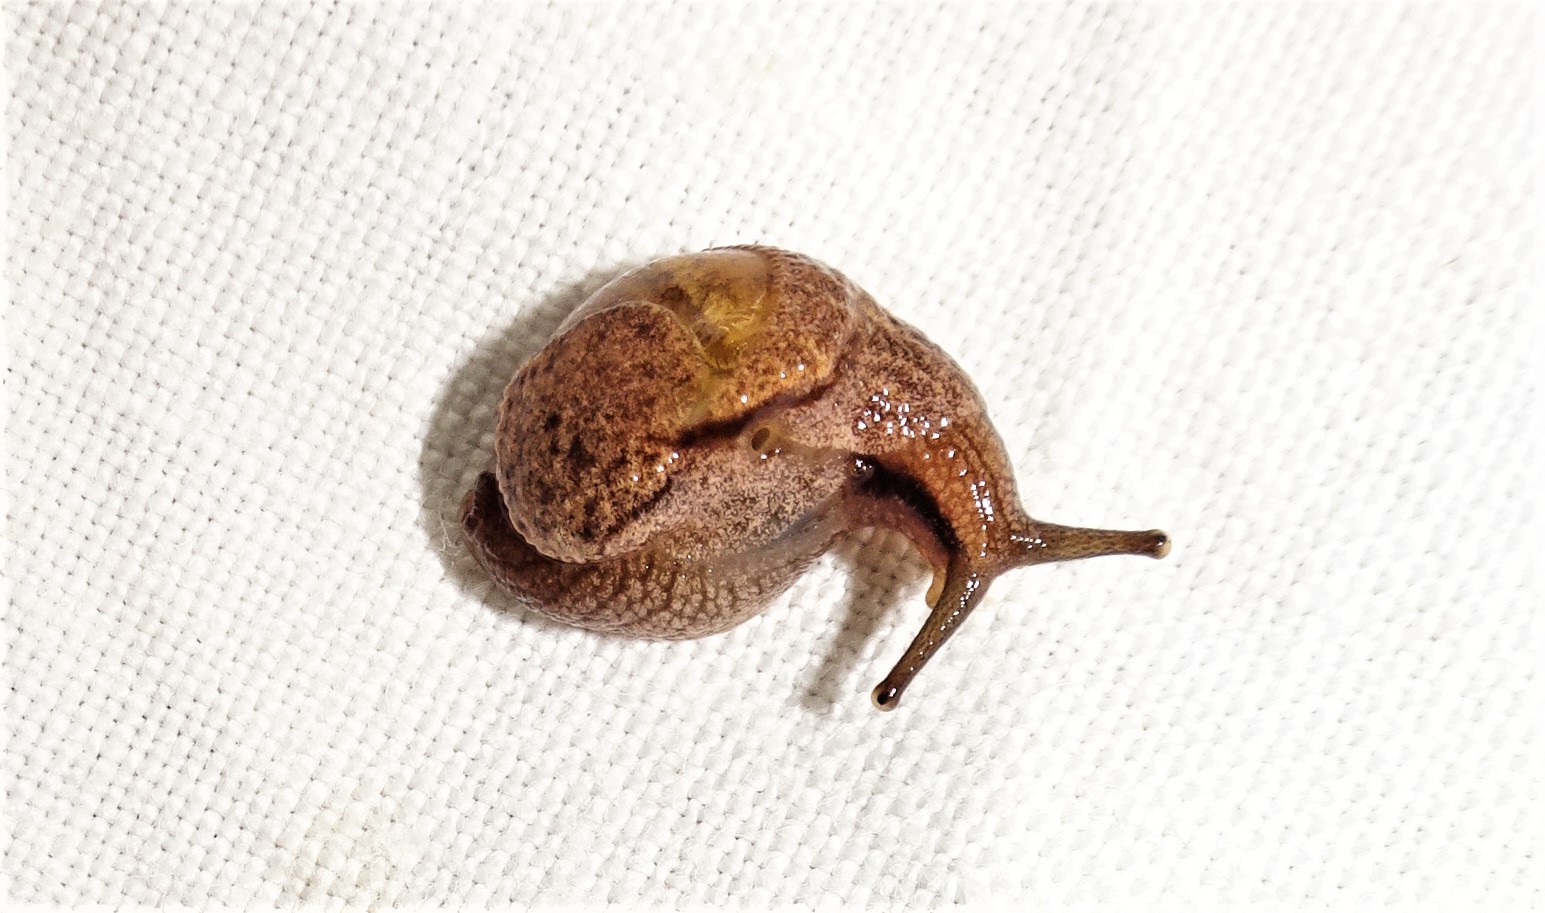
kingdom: Animalia
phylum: Mollusca
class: Gastropoda
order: Stylommatophora
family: Helicarionidae
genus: Ubiquitarion
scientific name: Ubiquitarion iridis
